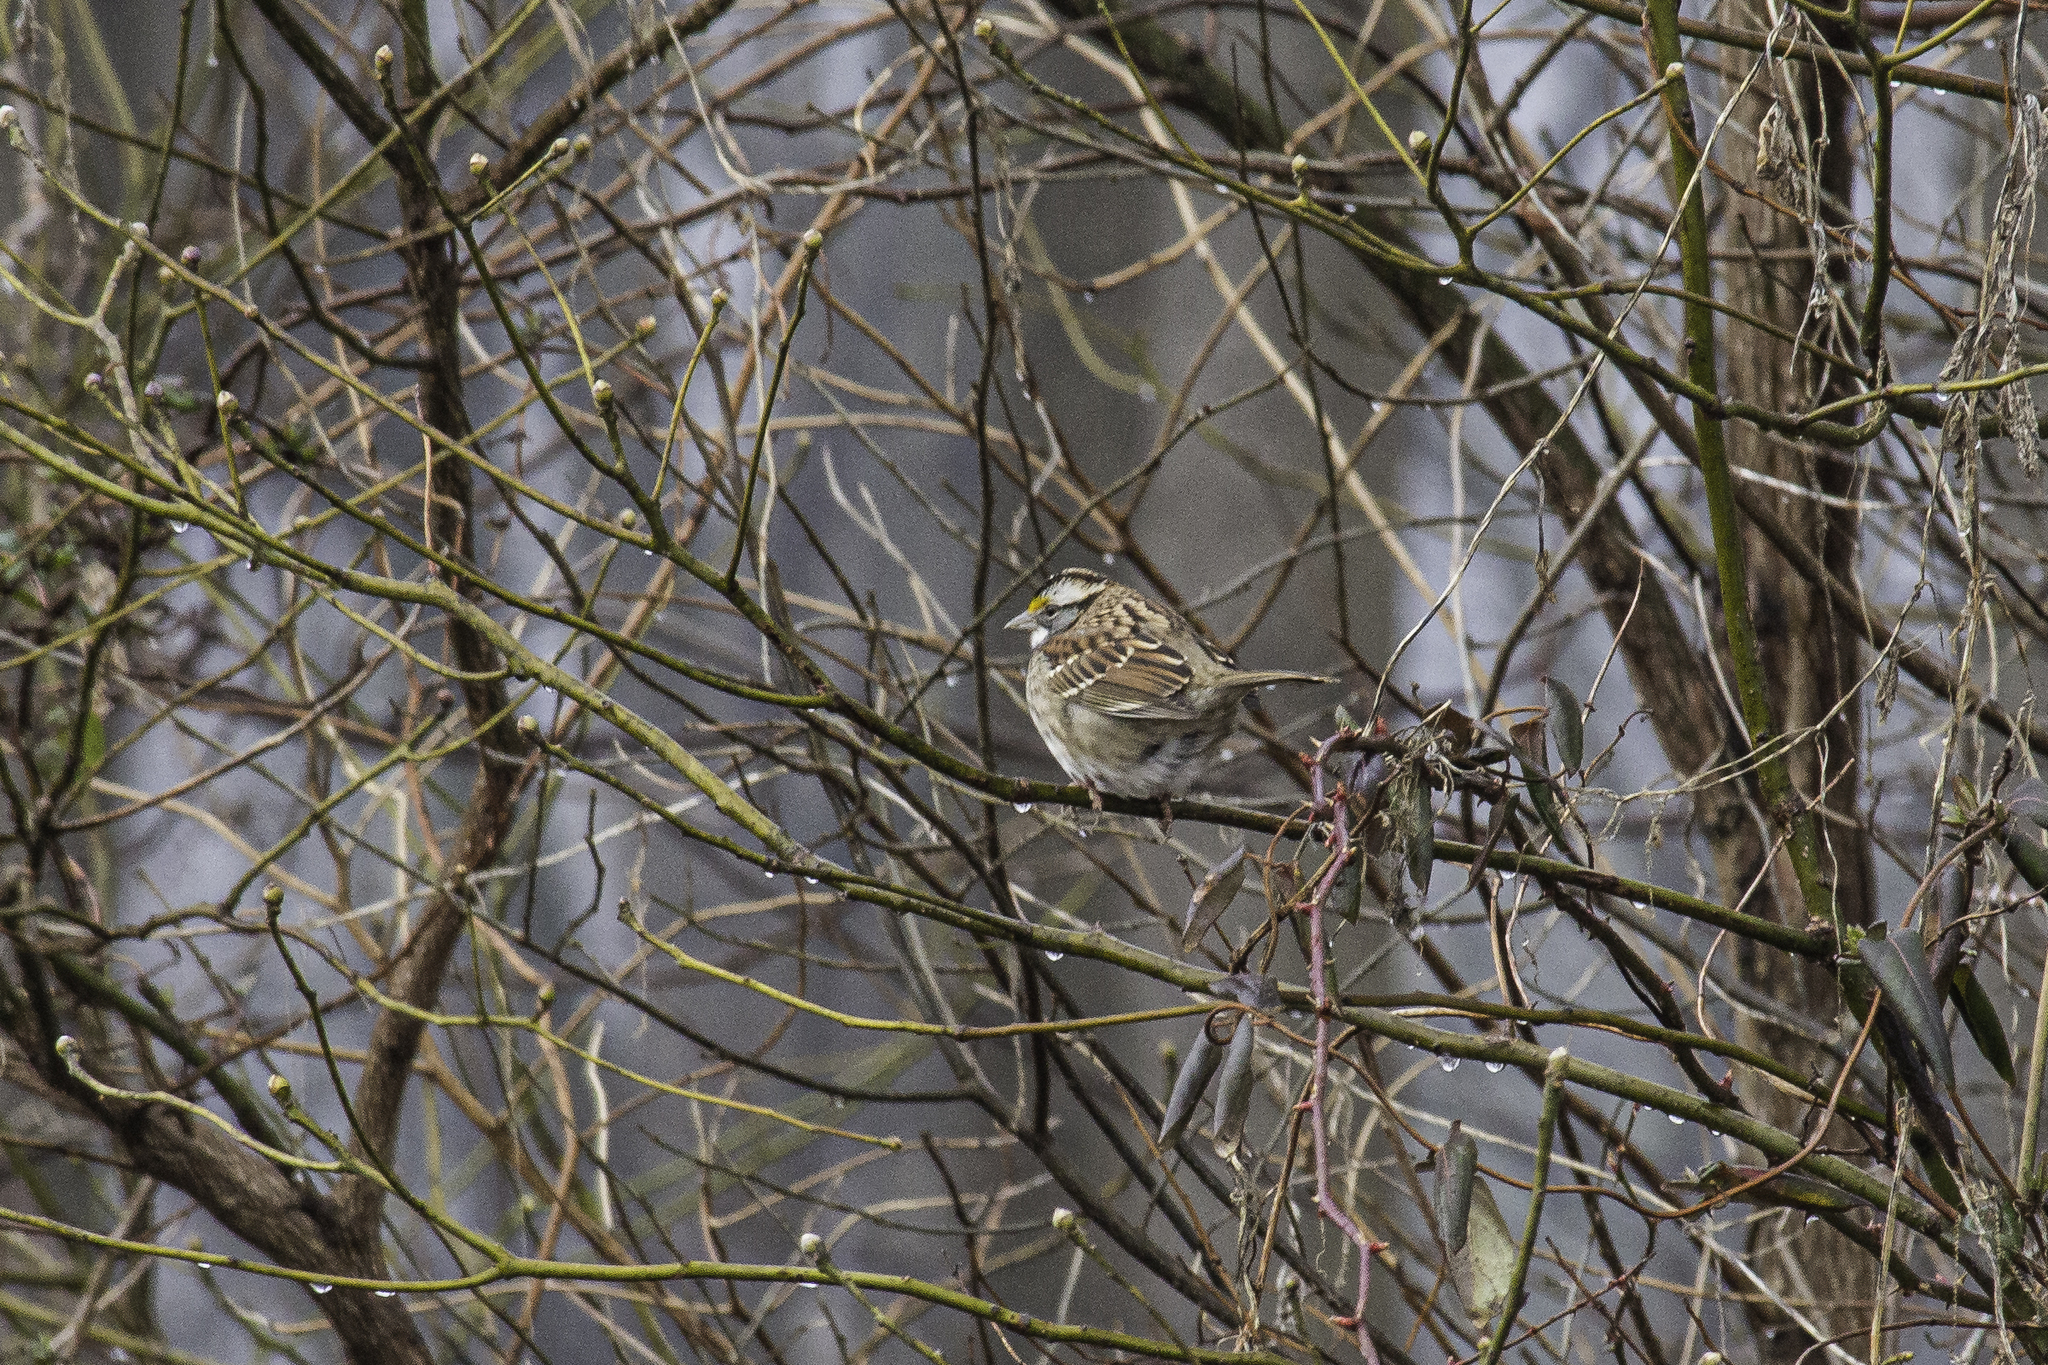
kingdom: Animalia
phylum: Chordata
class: Aves
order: Passeriformes
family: Passerellidae
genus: Zonotrichia
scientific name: Zonotrichia albicollis
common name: White-throated sparrow
